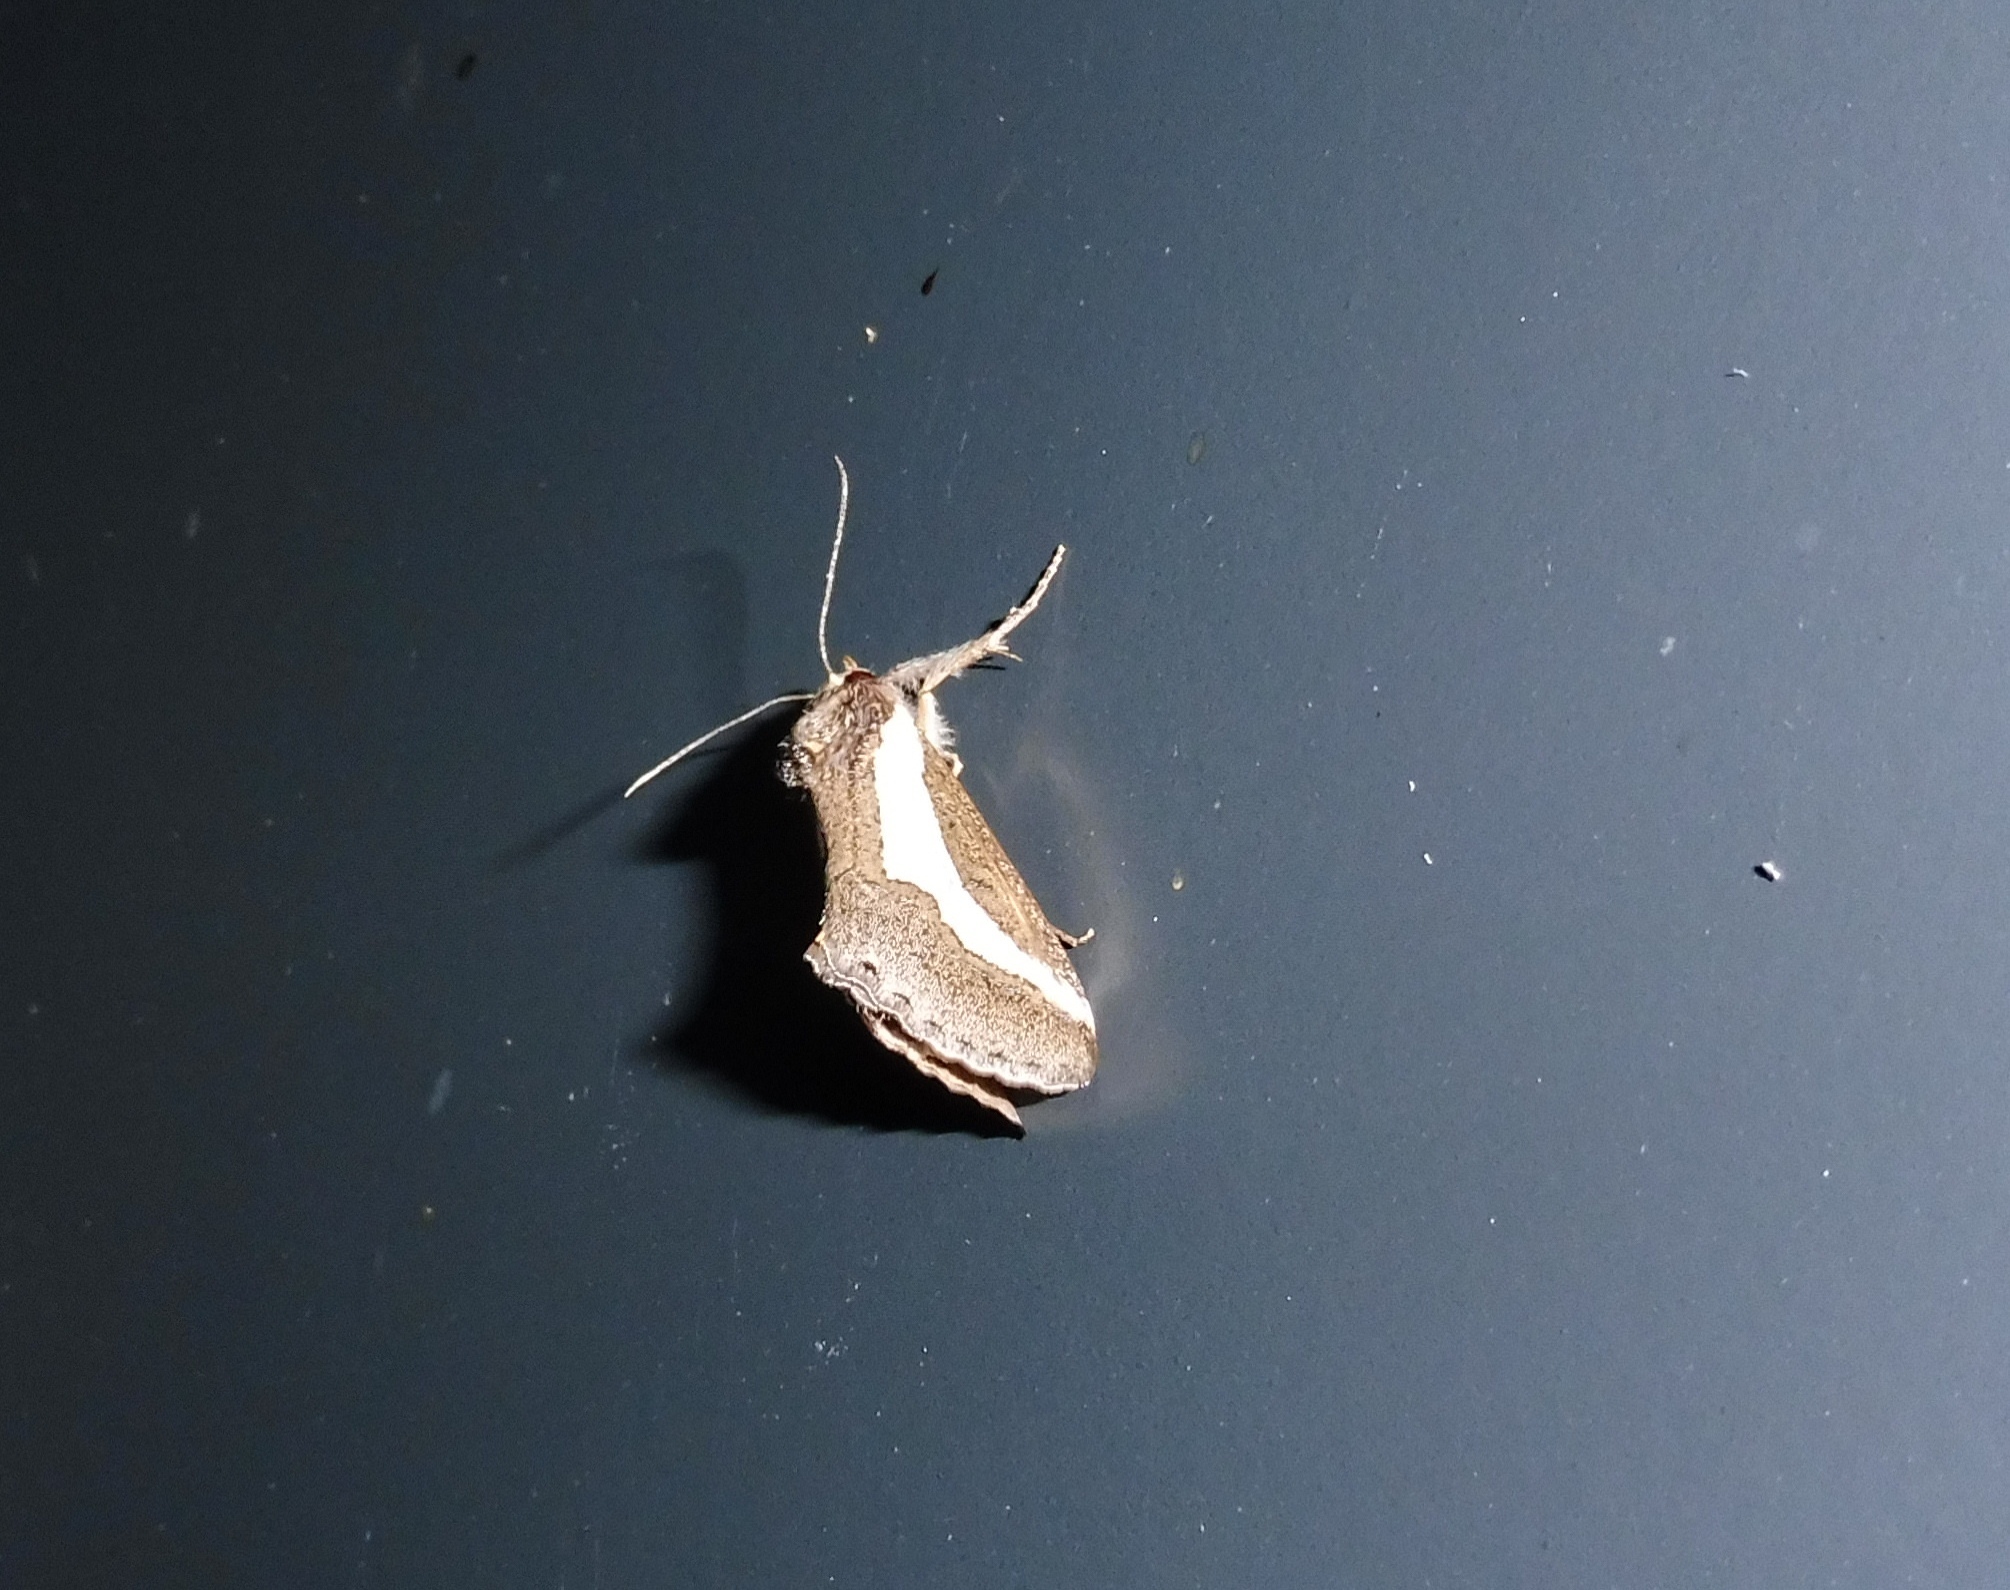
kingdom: Animalia
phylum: Arthropoda
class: Insecta
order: Lepidoptera
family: Noctuidae
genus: Euscirrhopterus
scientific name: Euscirrhopterus cosyra
